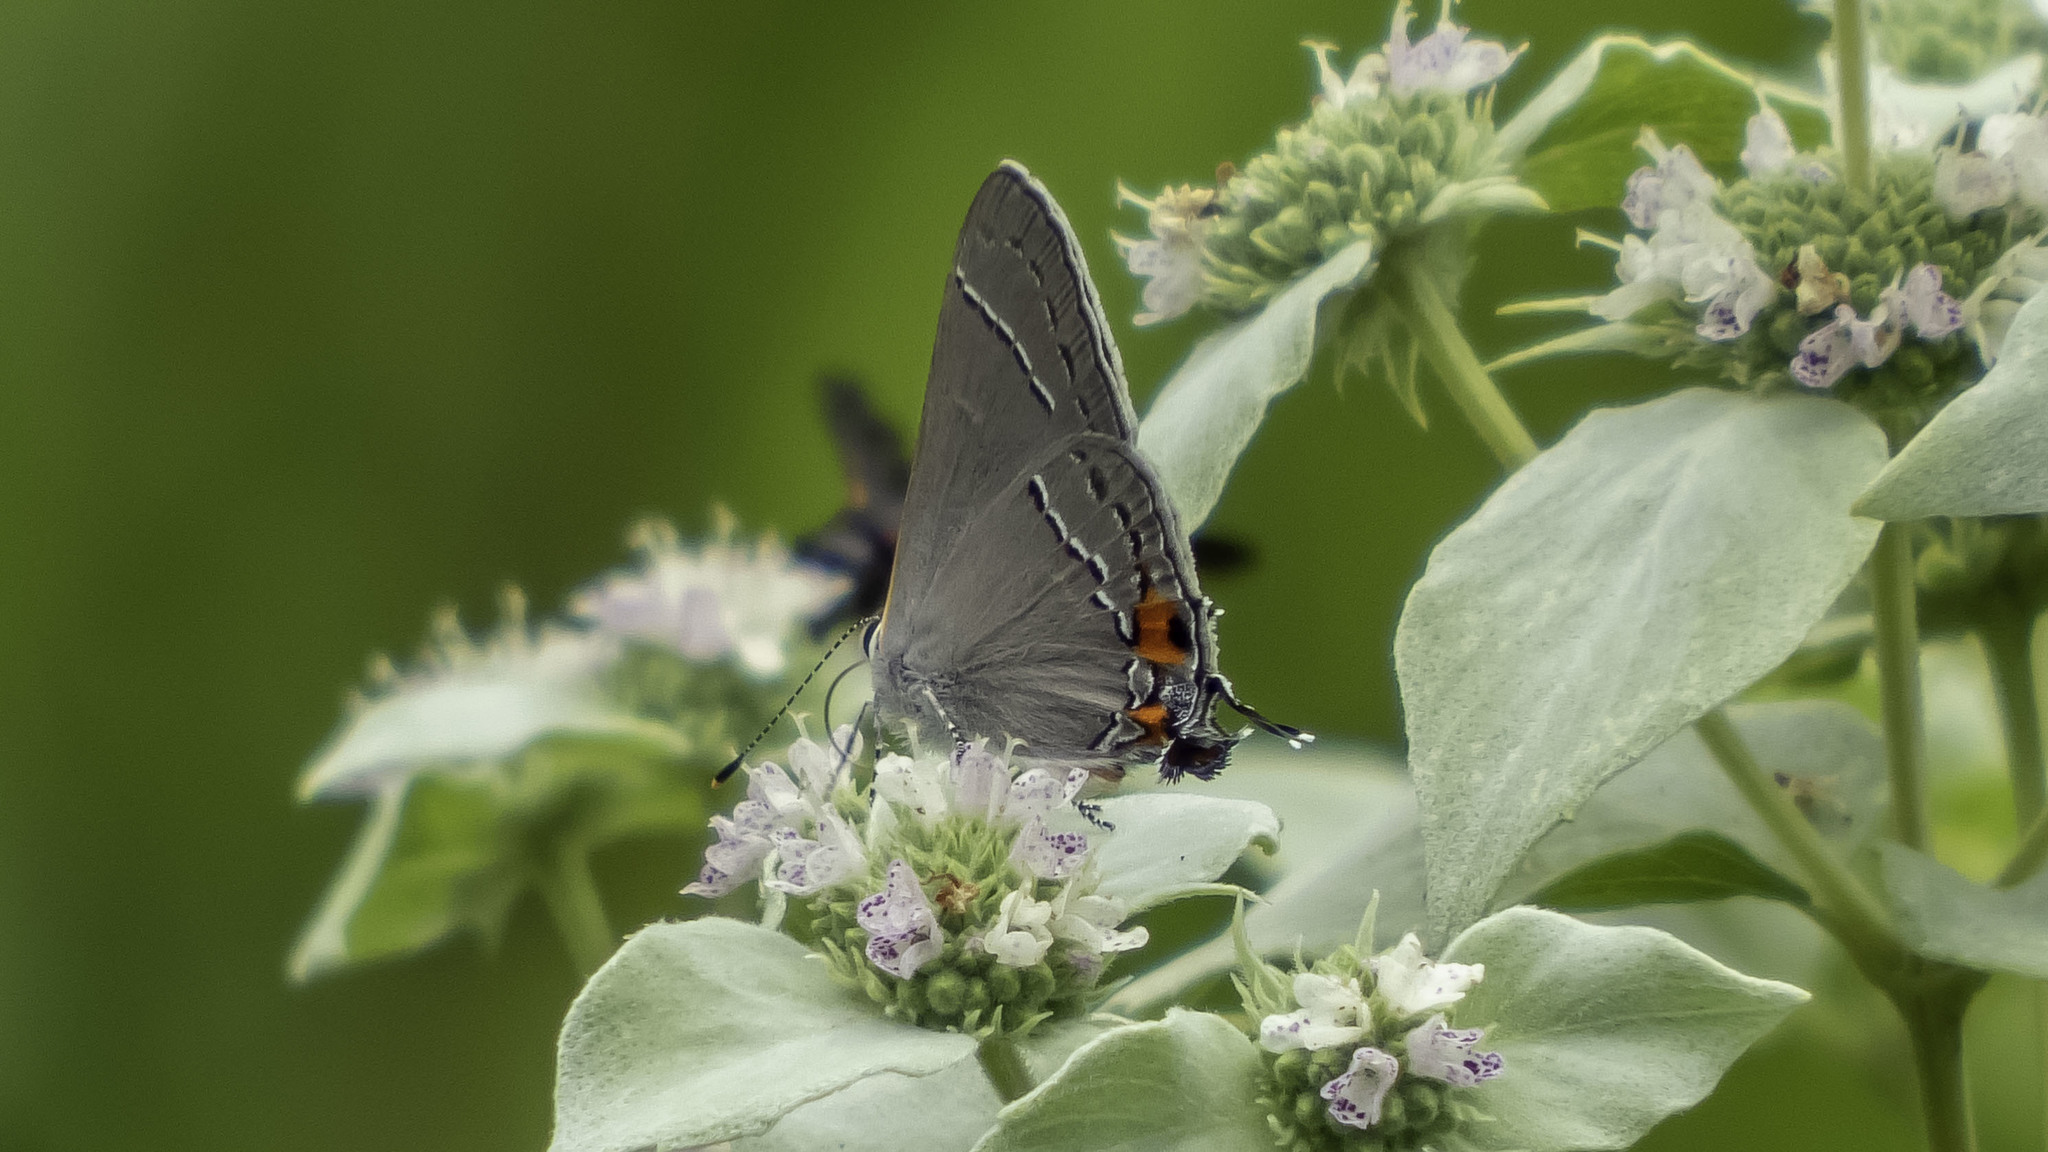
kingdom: Animalia
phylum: Arthropoda
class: Insecta
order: Lepidoptera
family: Lycaenidae
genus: Strymon
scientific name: Strymon melinus
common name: Gray hairstreak
